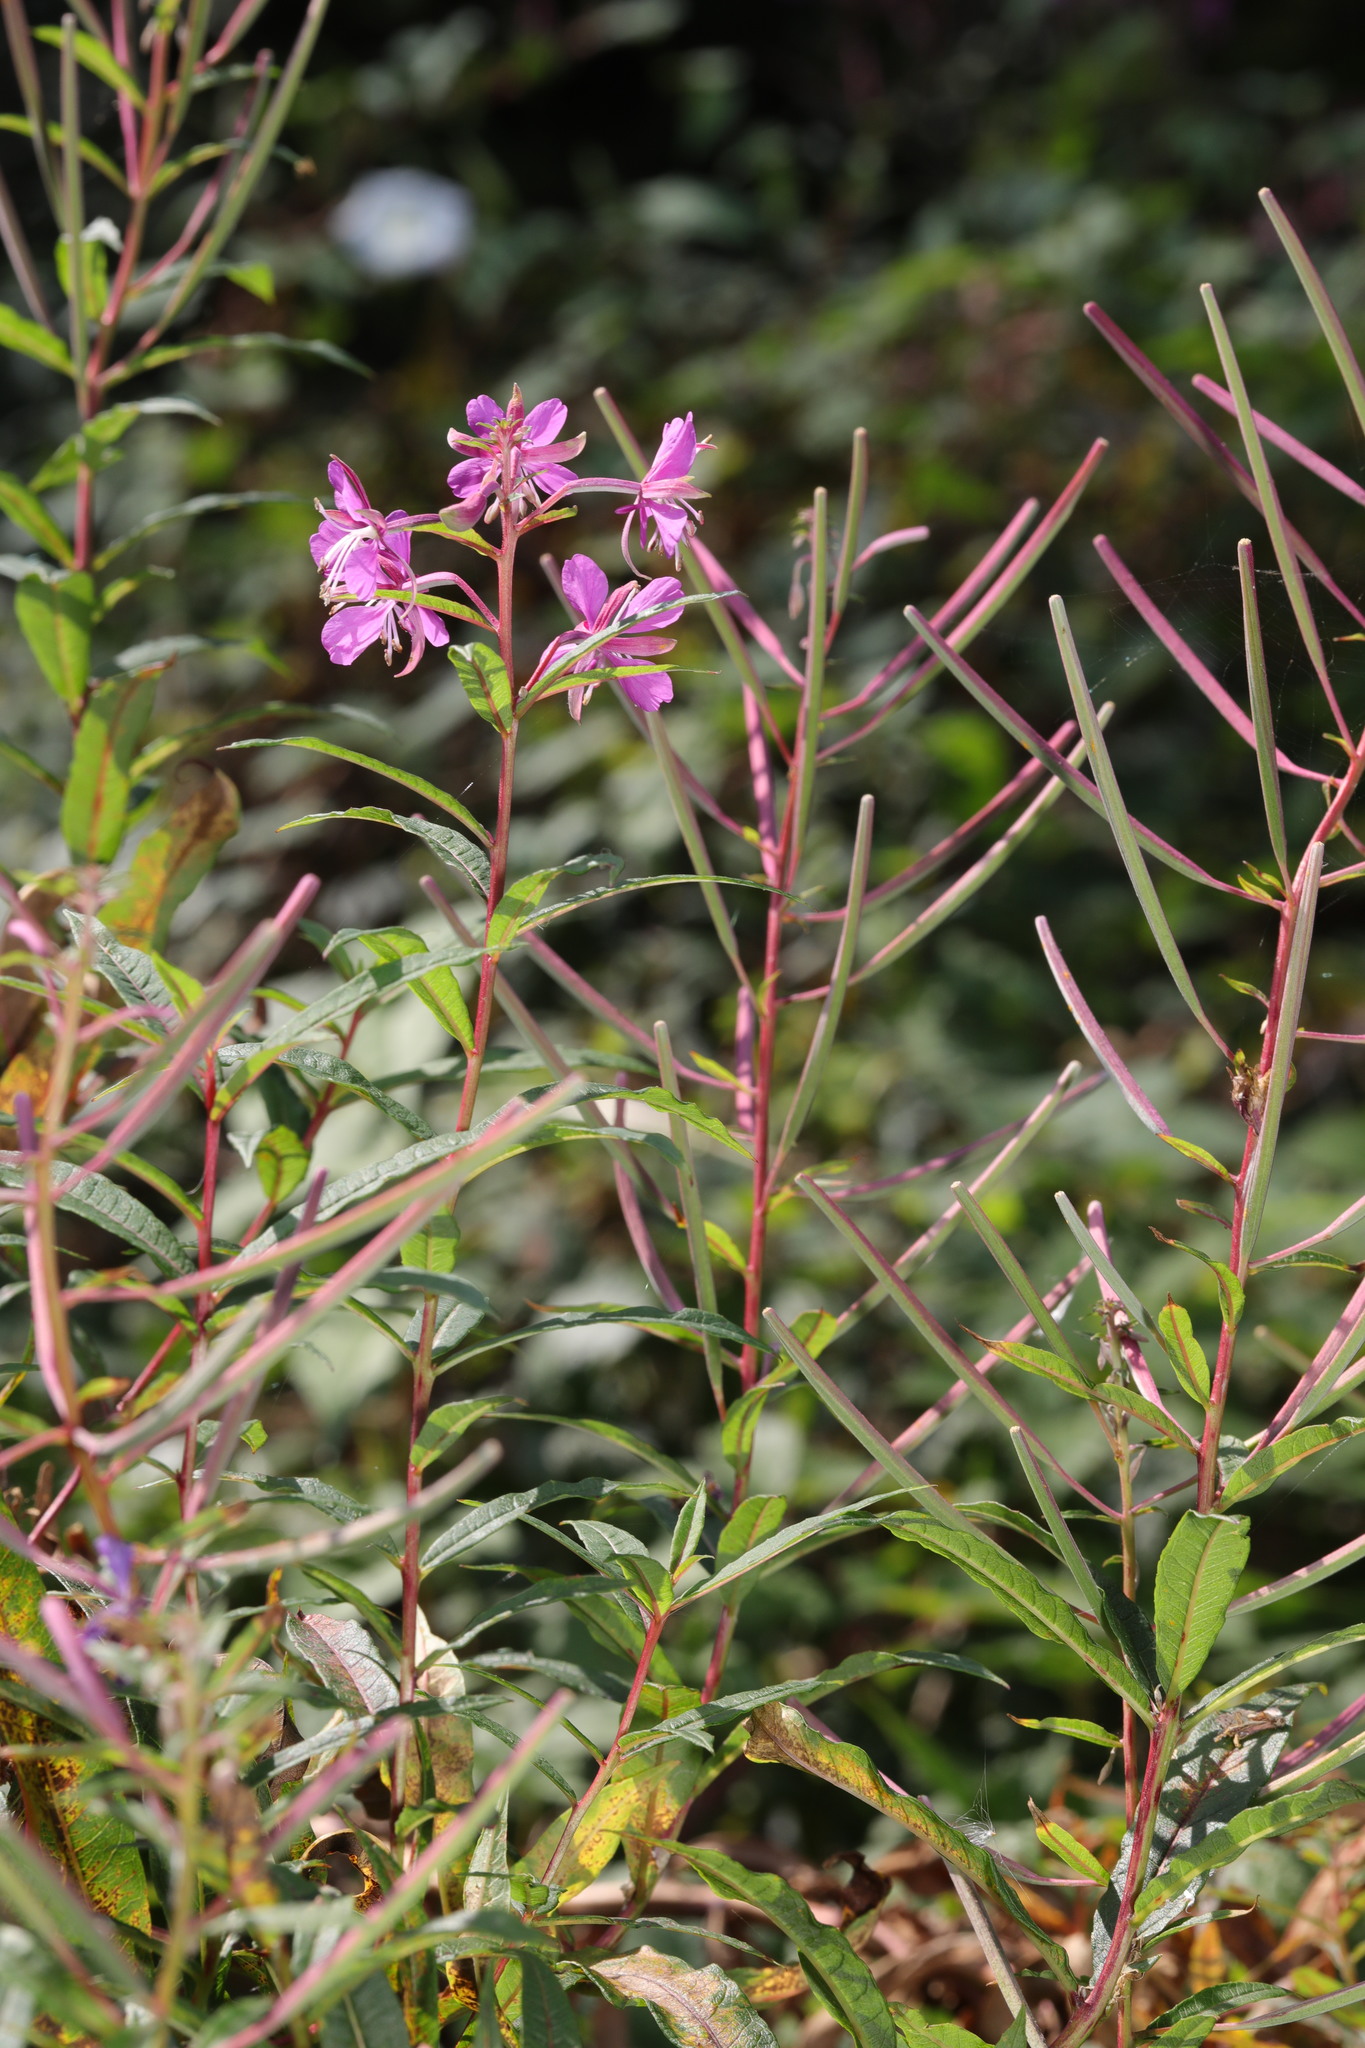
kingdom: Plantae
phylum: Tracheophyta
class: Magnoliopsida
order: Myrtales
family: Onagraceae
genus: Chamaenerion
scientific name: Chamaenerion angustifolium
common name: Fireweed
